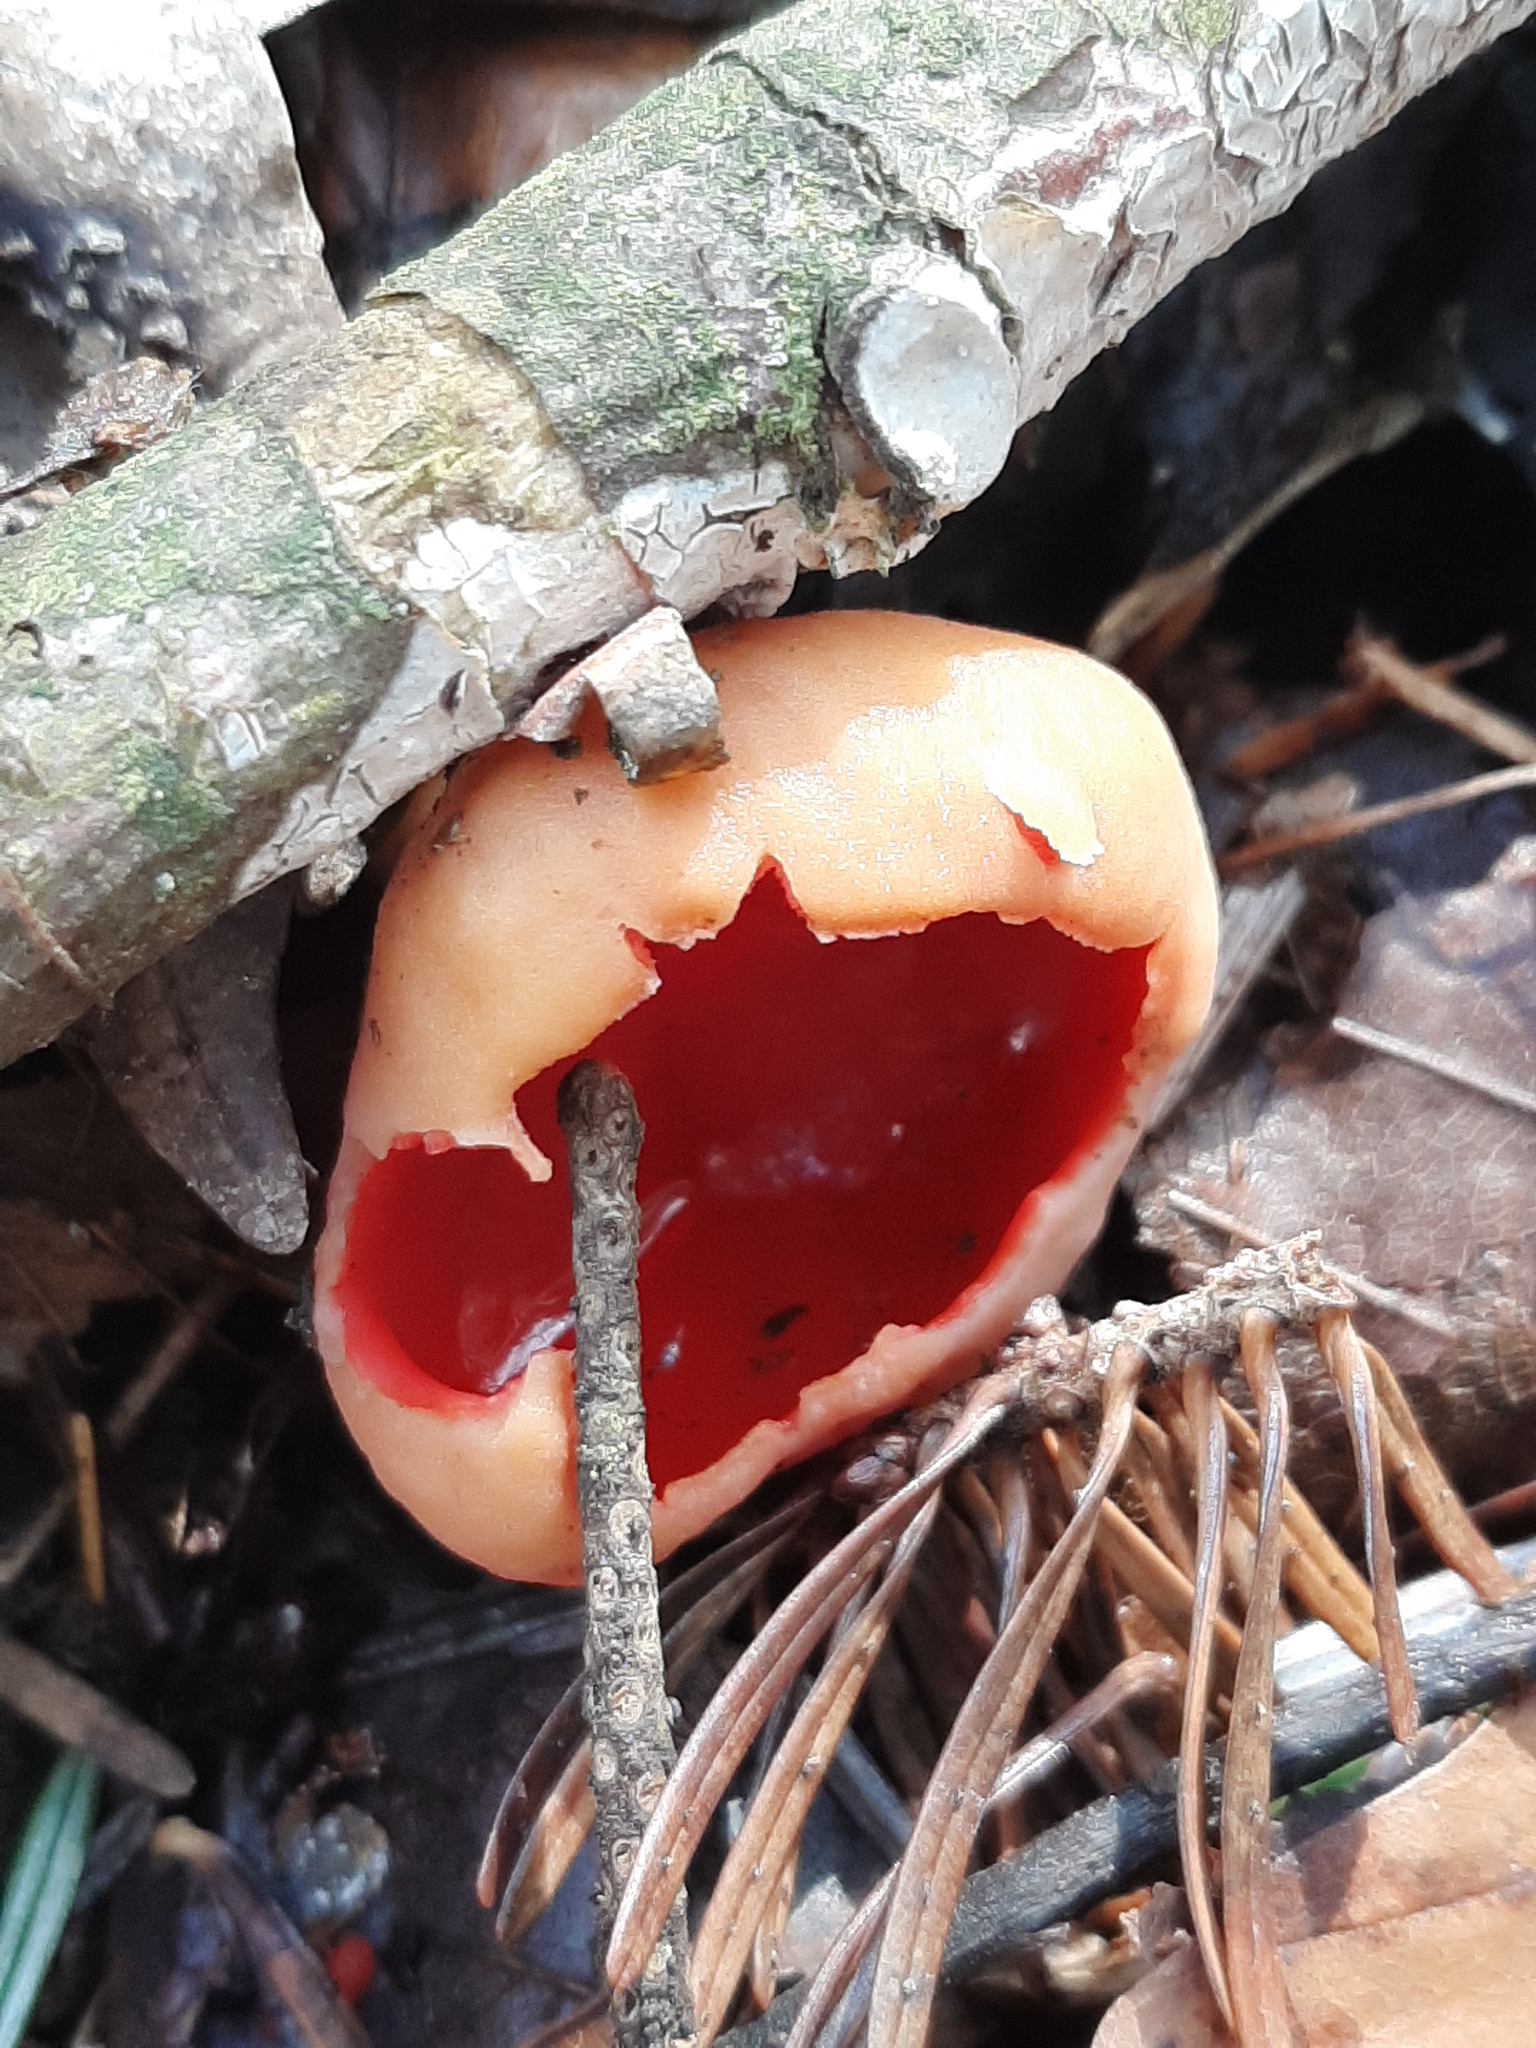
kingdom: Fungi
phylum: Ascomycota
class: Pezizomycetes
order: Pezizales
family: Sarcoscyphaceae
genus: Sarcoscypha
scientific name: Sarcoscypha
